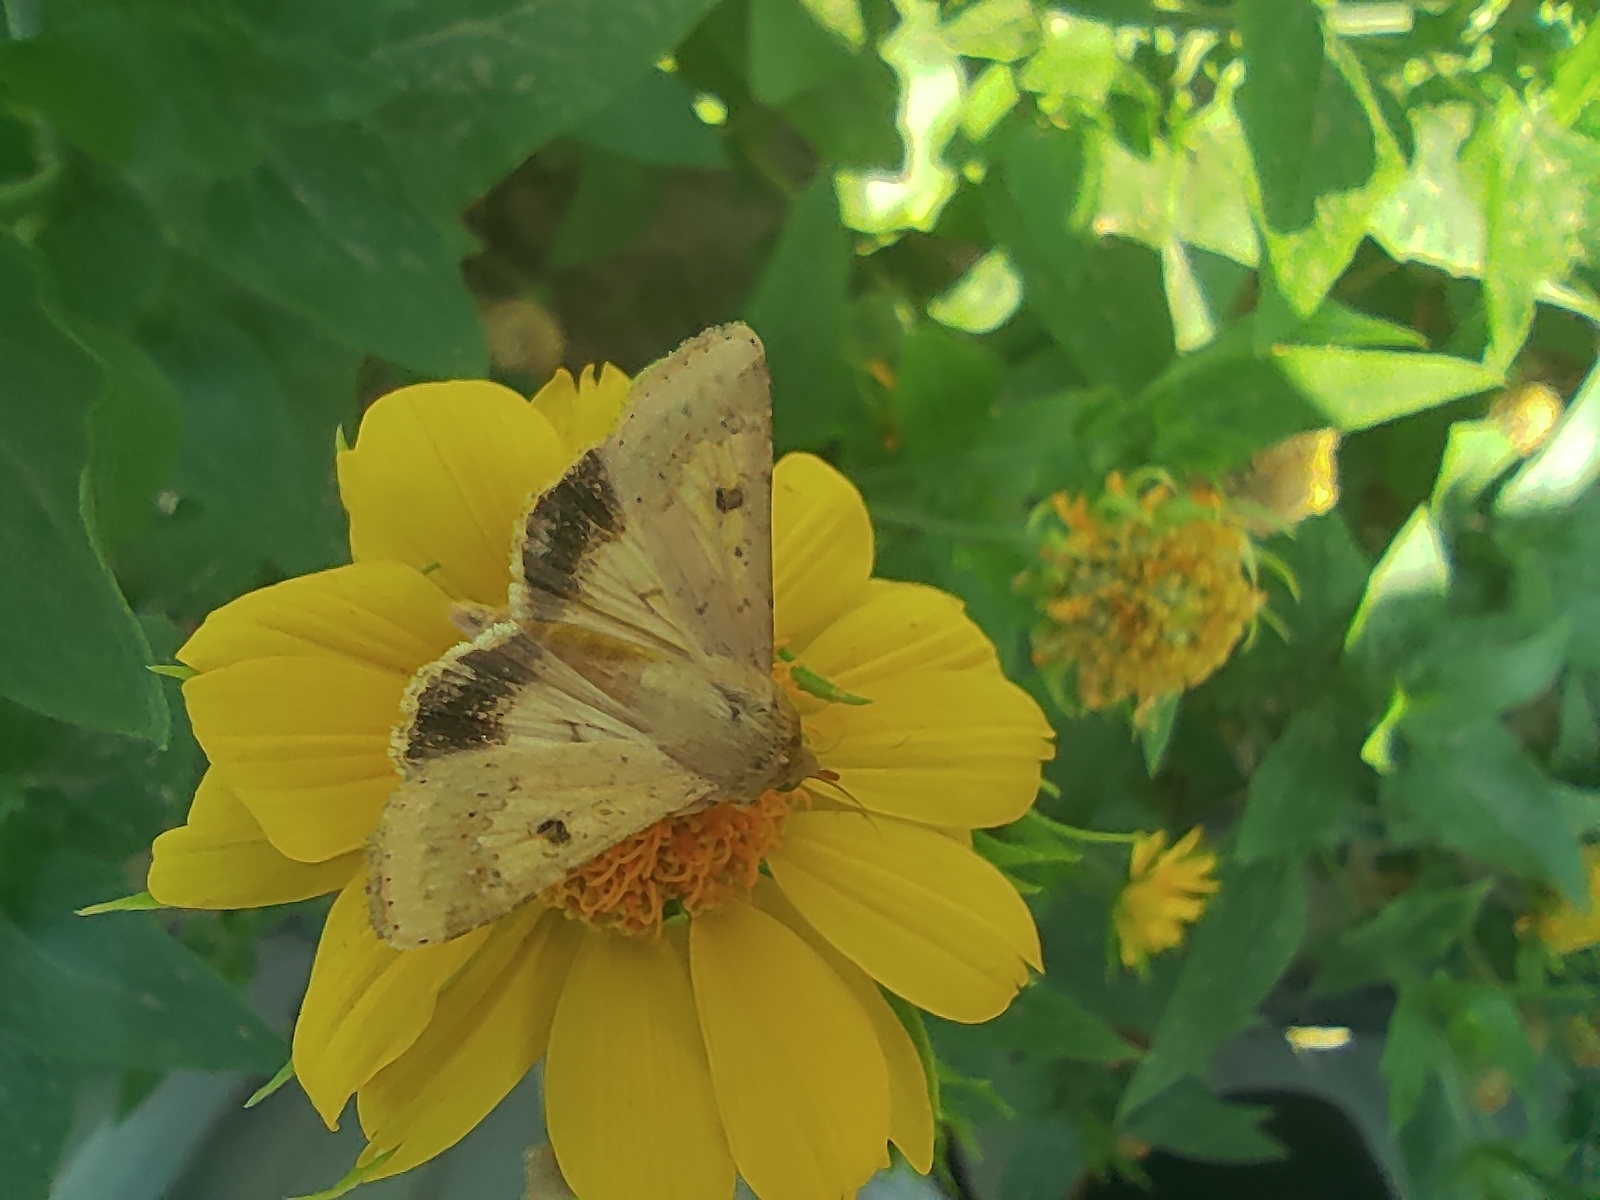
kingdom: Animalia
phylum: Arthropoda
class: Insecta
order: Lepidoptera
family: Noctuidae
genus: Helicoverpa
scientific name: Helicoverpa armigera
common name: Cotton bollworm
